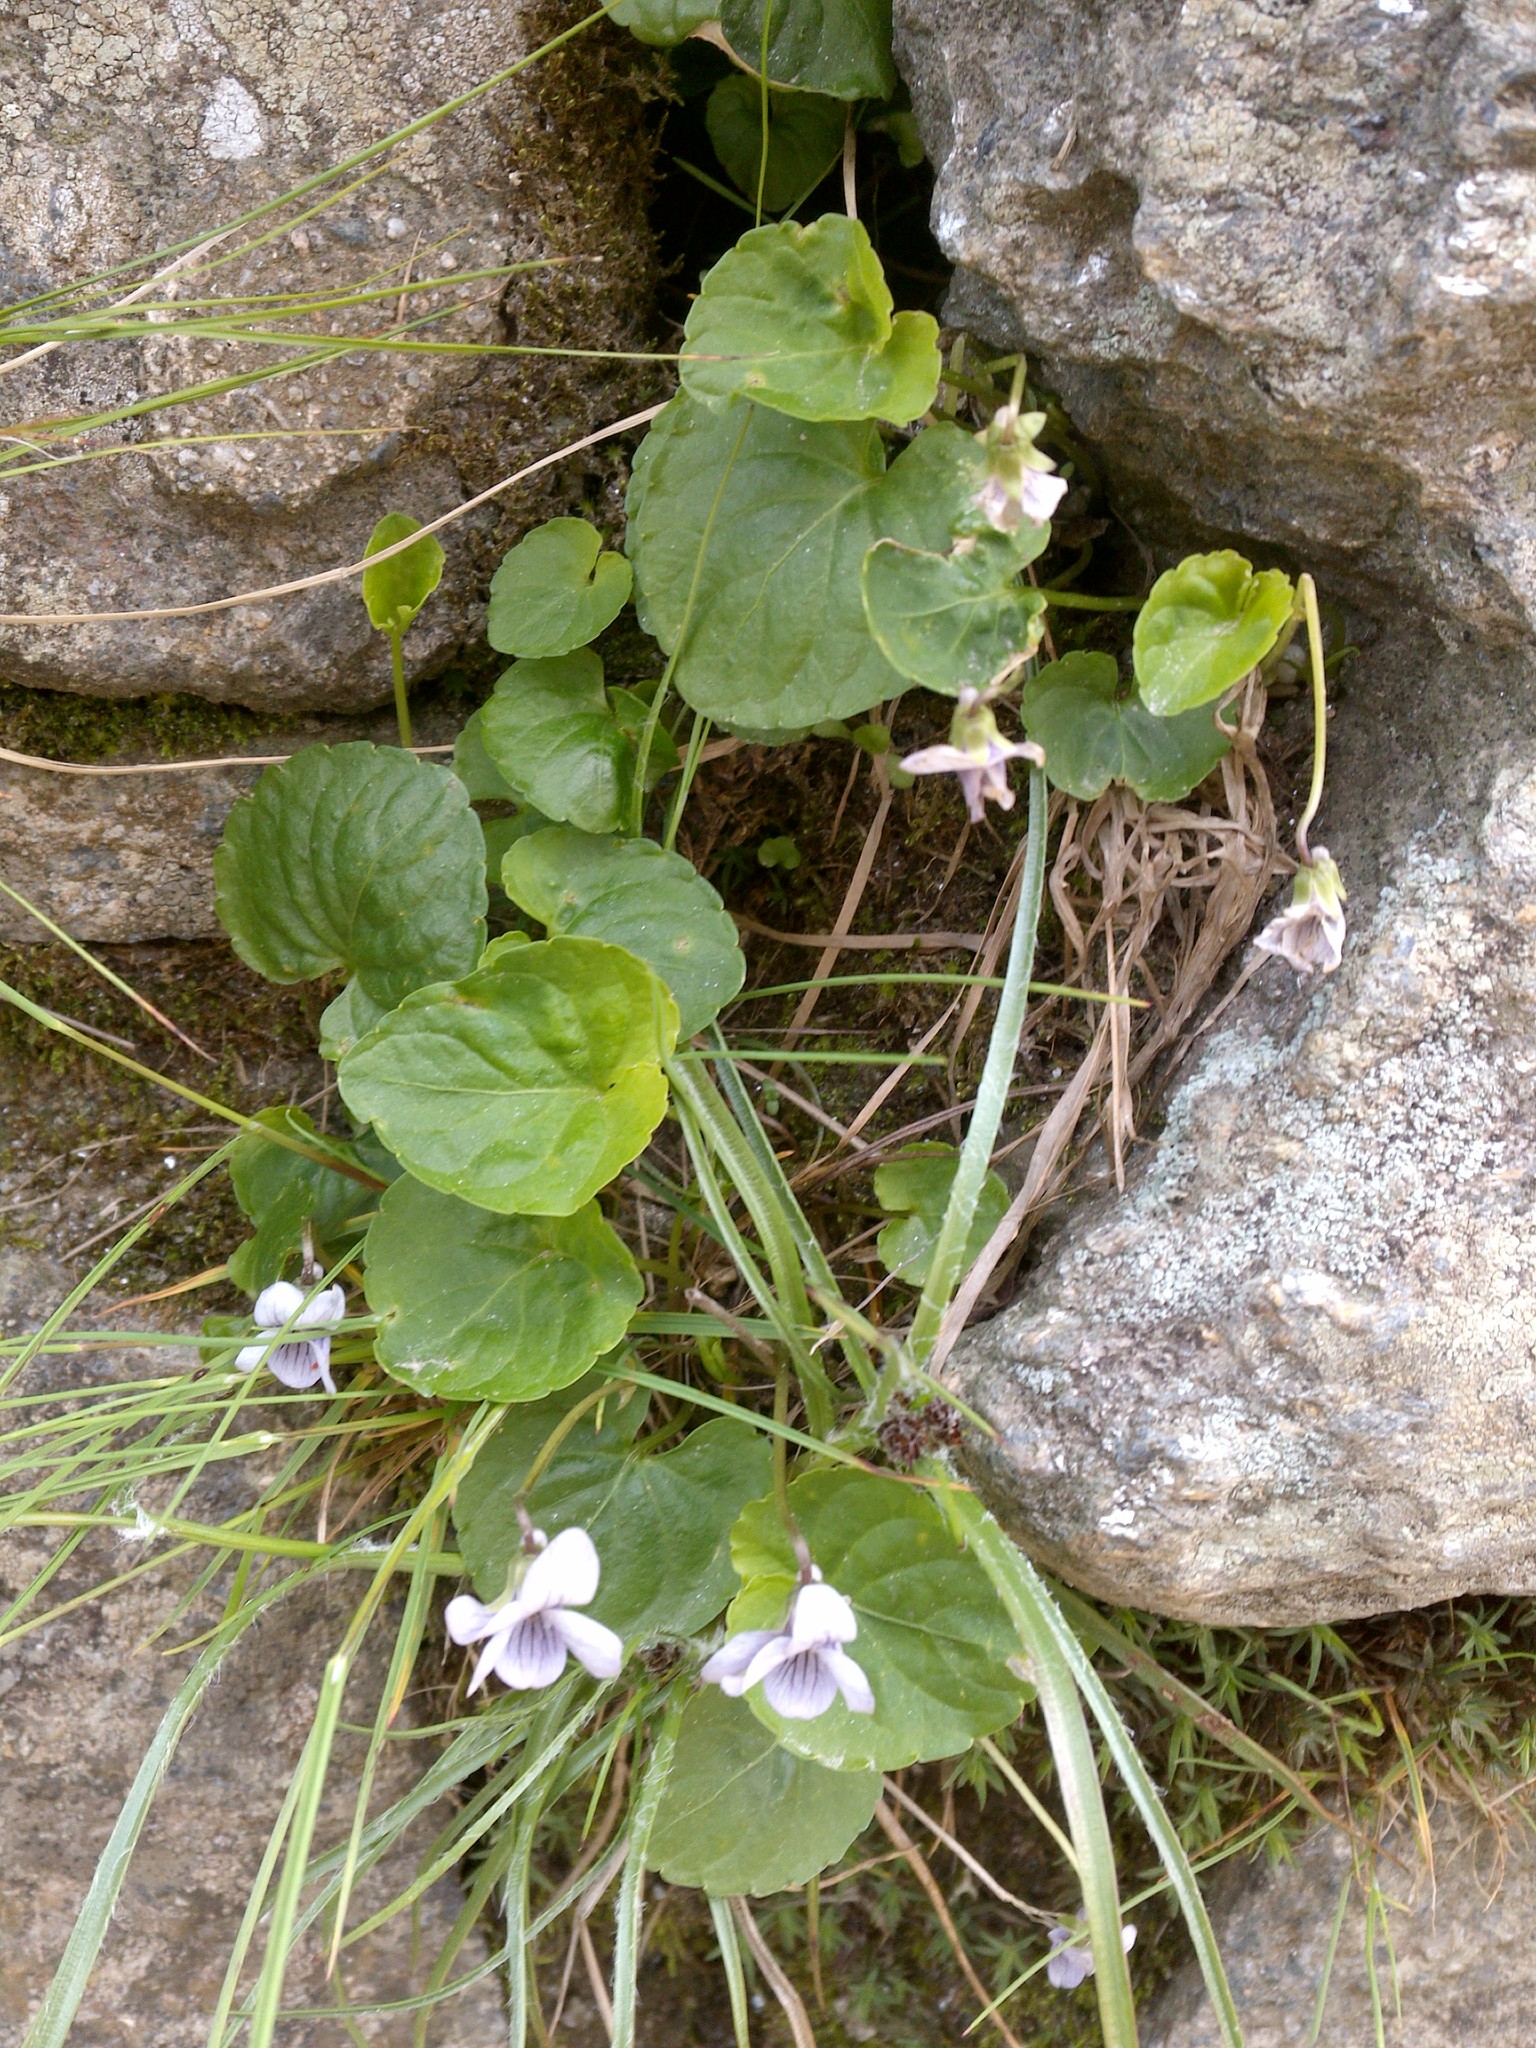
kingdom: Plantae
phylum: Tracheophyta
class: Magnoliopsida
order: Malpighiales
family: Violaceae
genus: Viola
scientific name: Viola palustris
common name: Marsh violet
